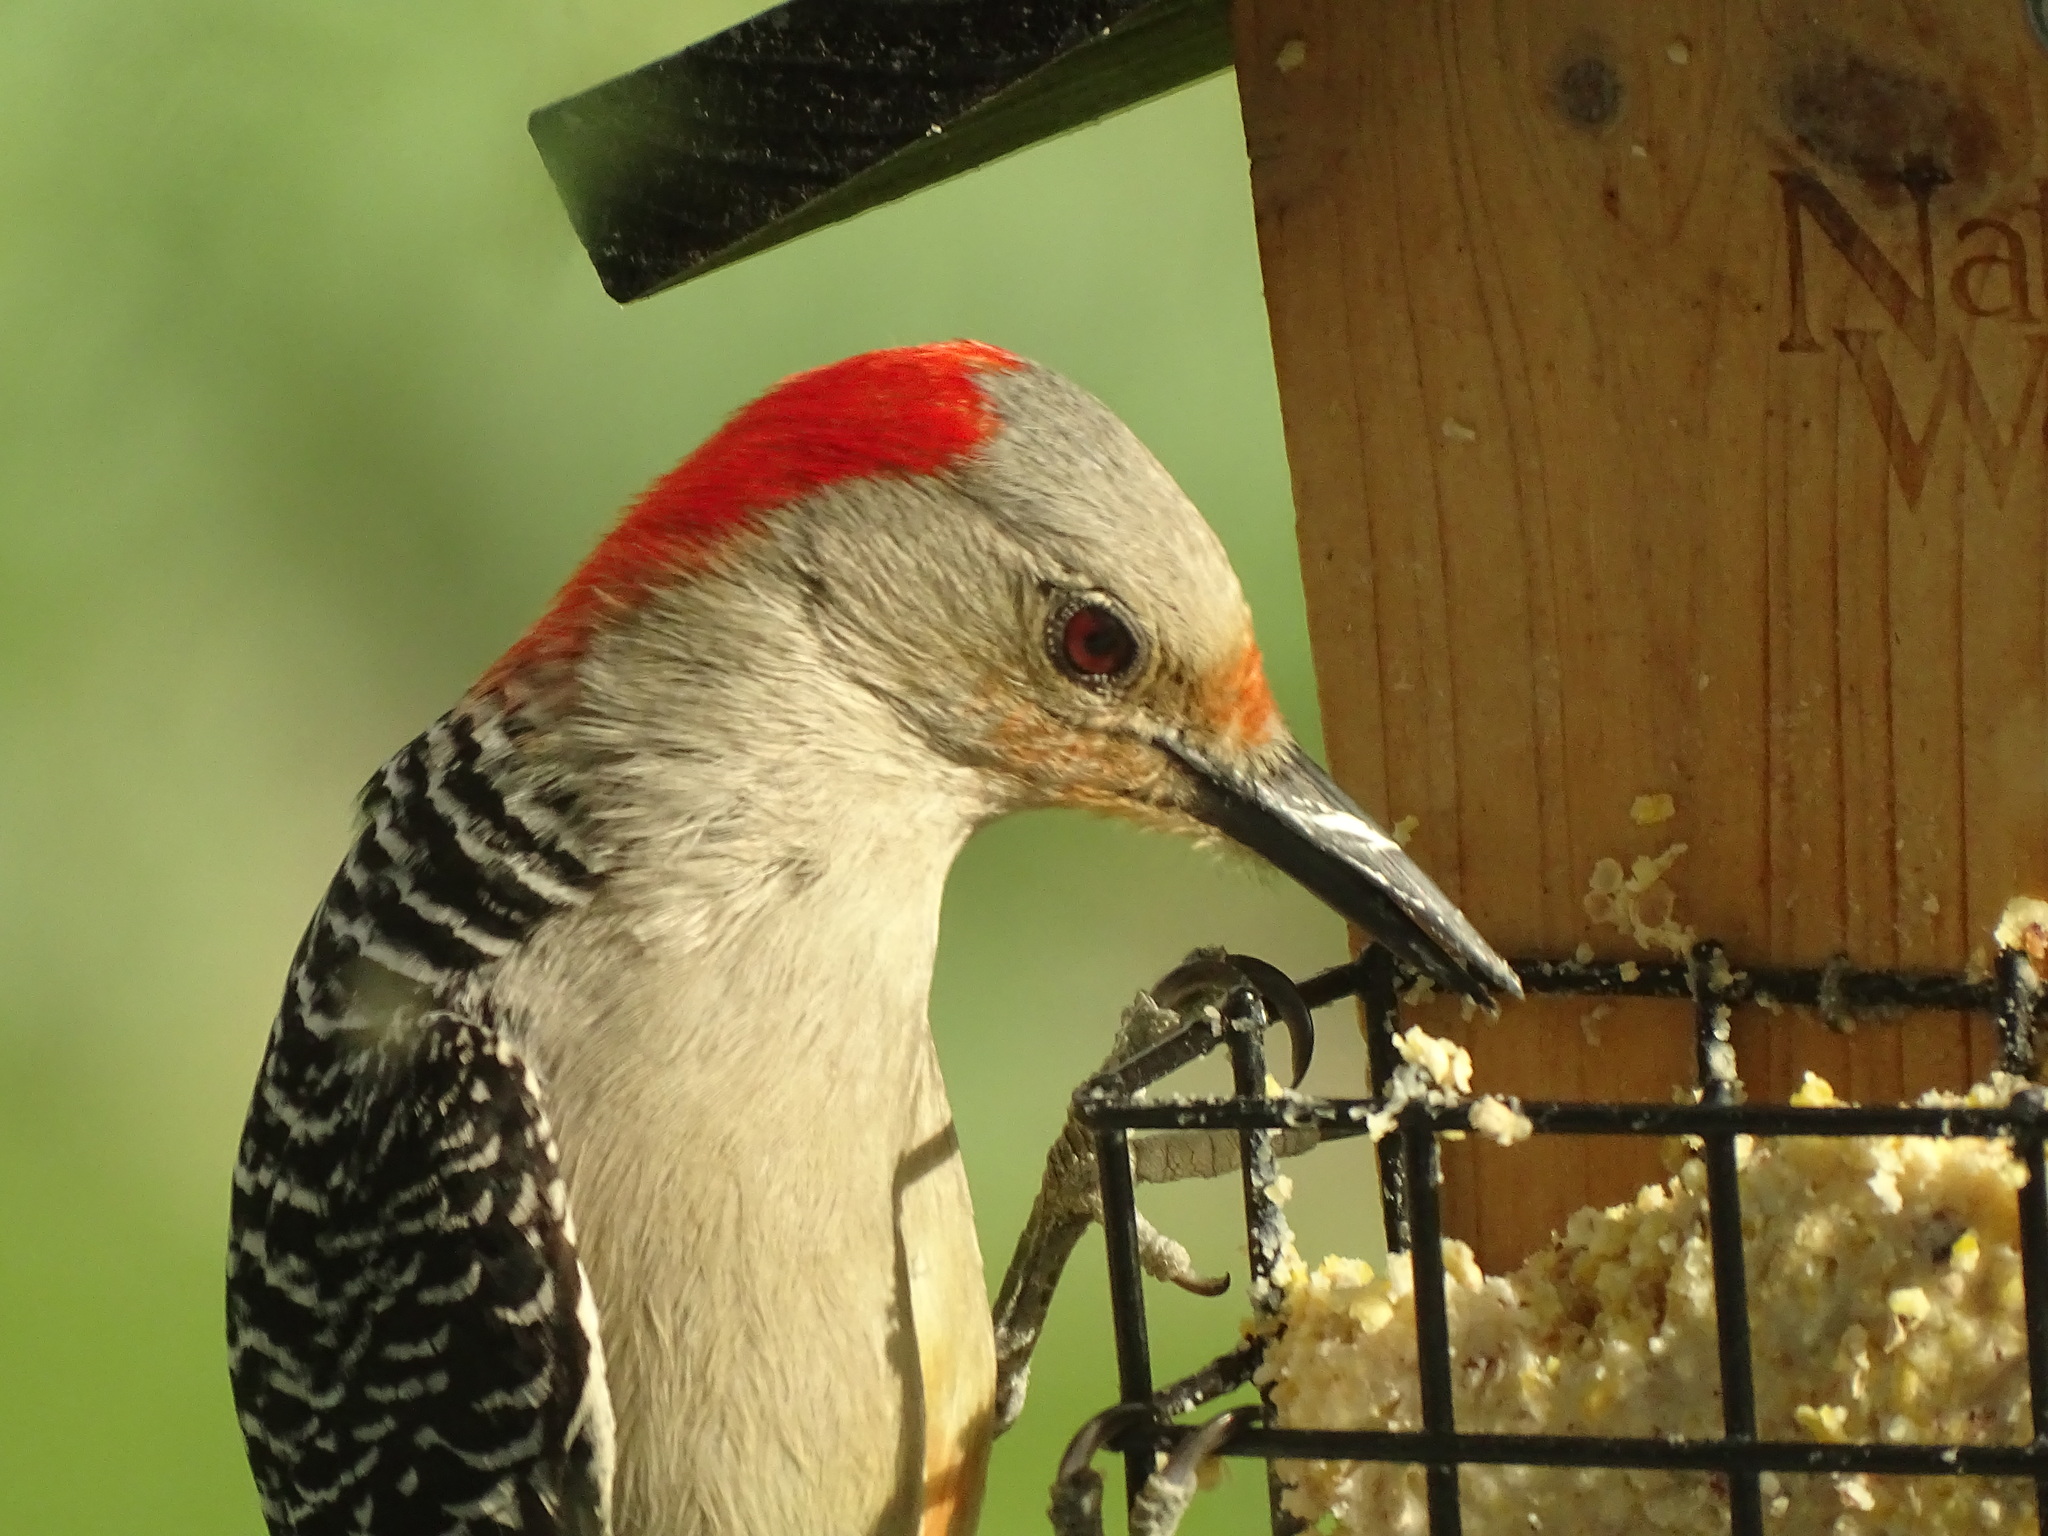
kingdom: Animalia
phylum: Chordata
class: Aves
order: Piciformes
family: Picidae
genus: Melanerpes
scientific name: Melanerpes carolinus
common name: Red-bellied woodpecker
